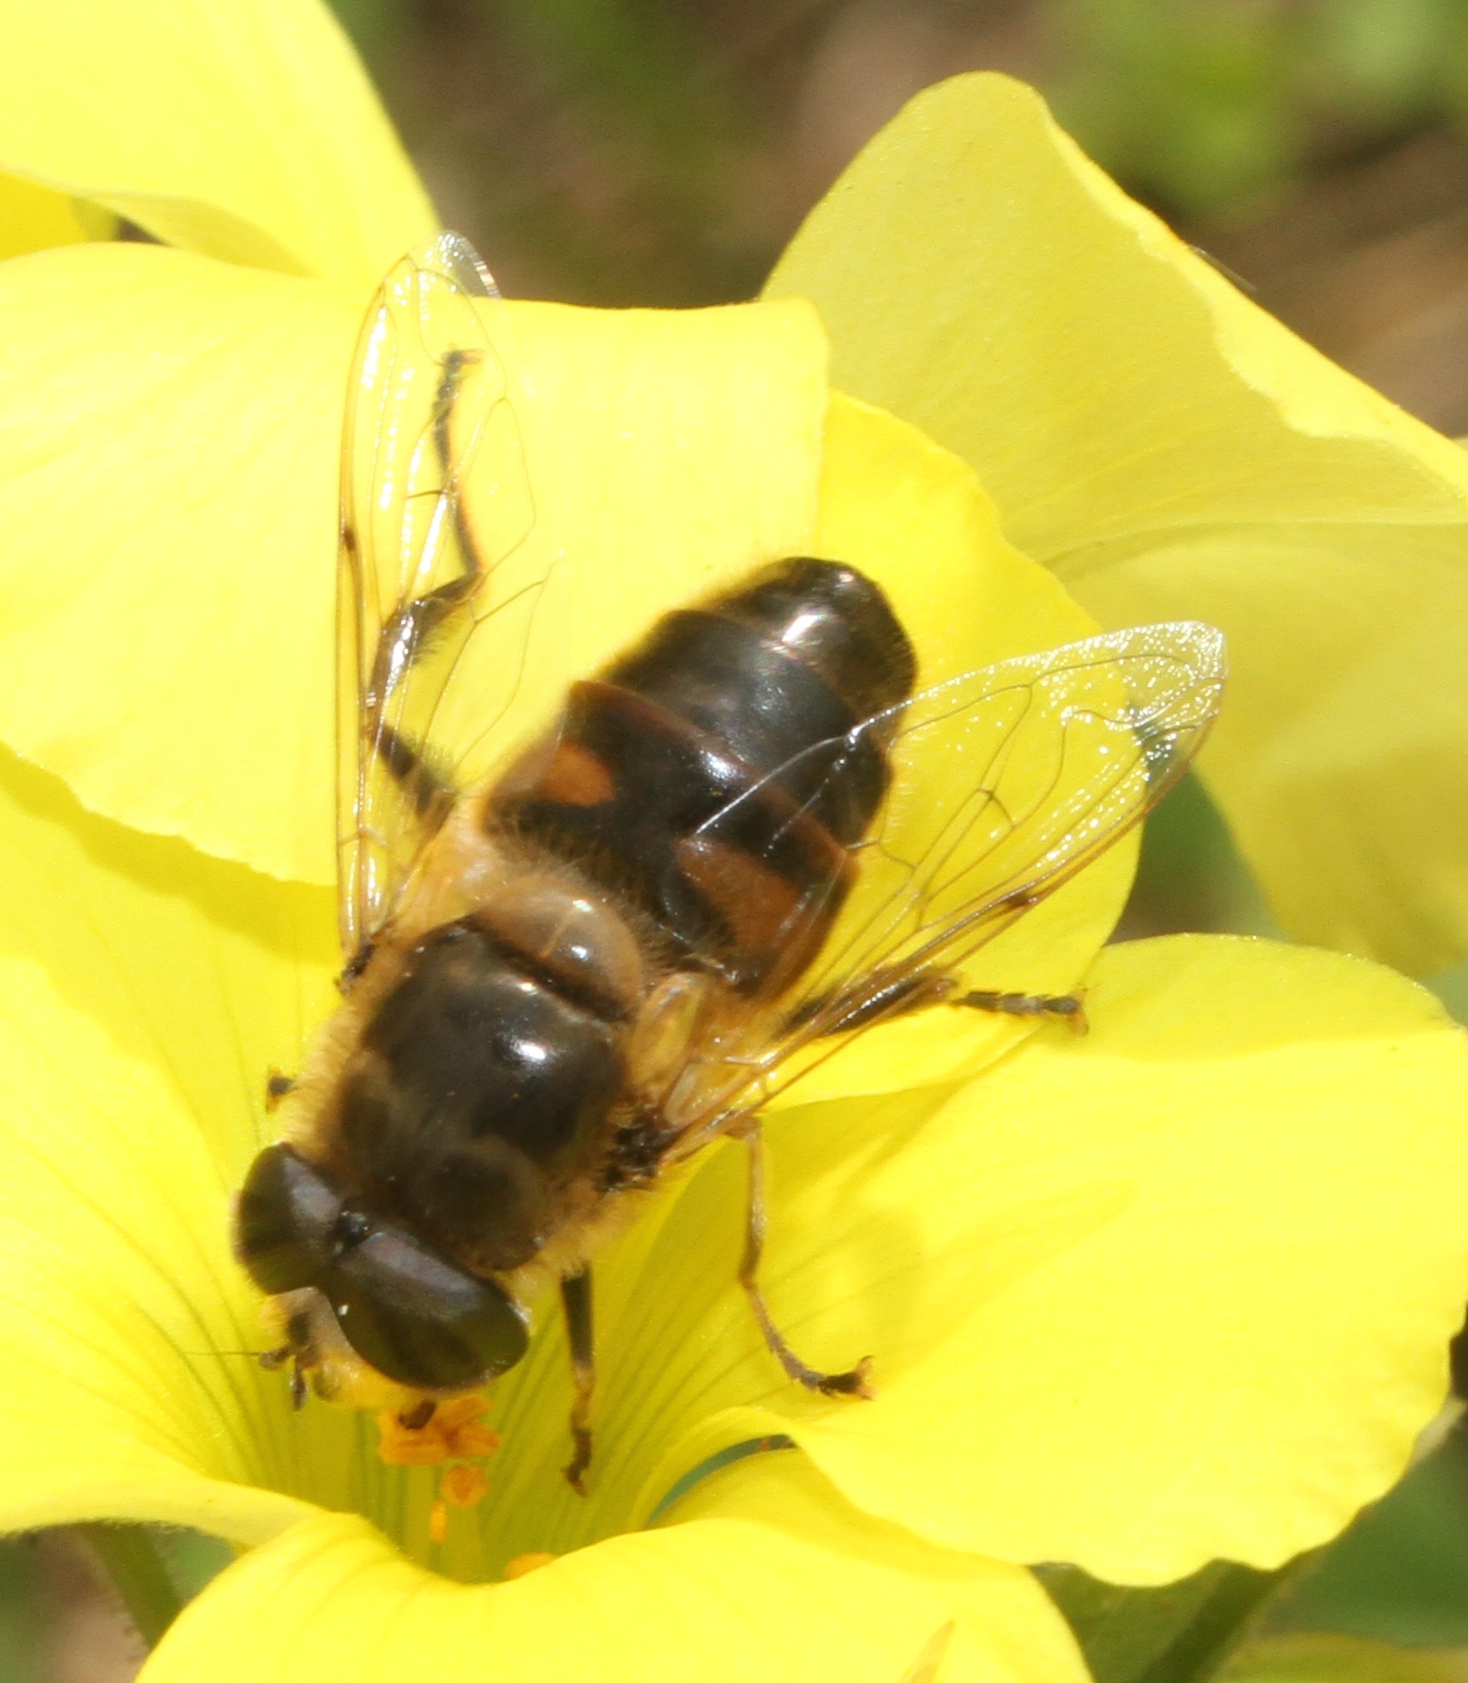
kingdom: Animalia
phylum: Arthropoda
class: Insecta
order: Diptera
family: Syrphidae
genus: Eristalis
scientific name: Eristalis tenax
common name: Drone fly
